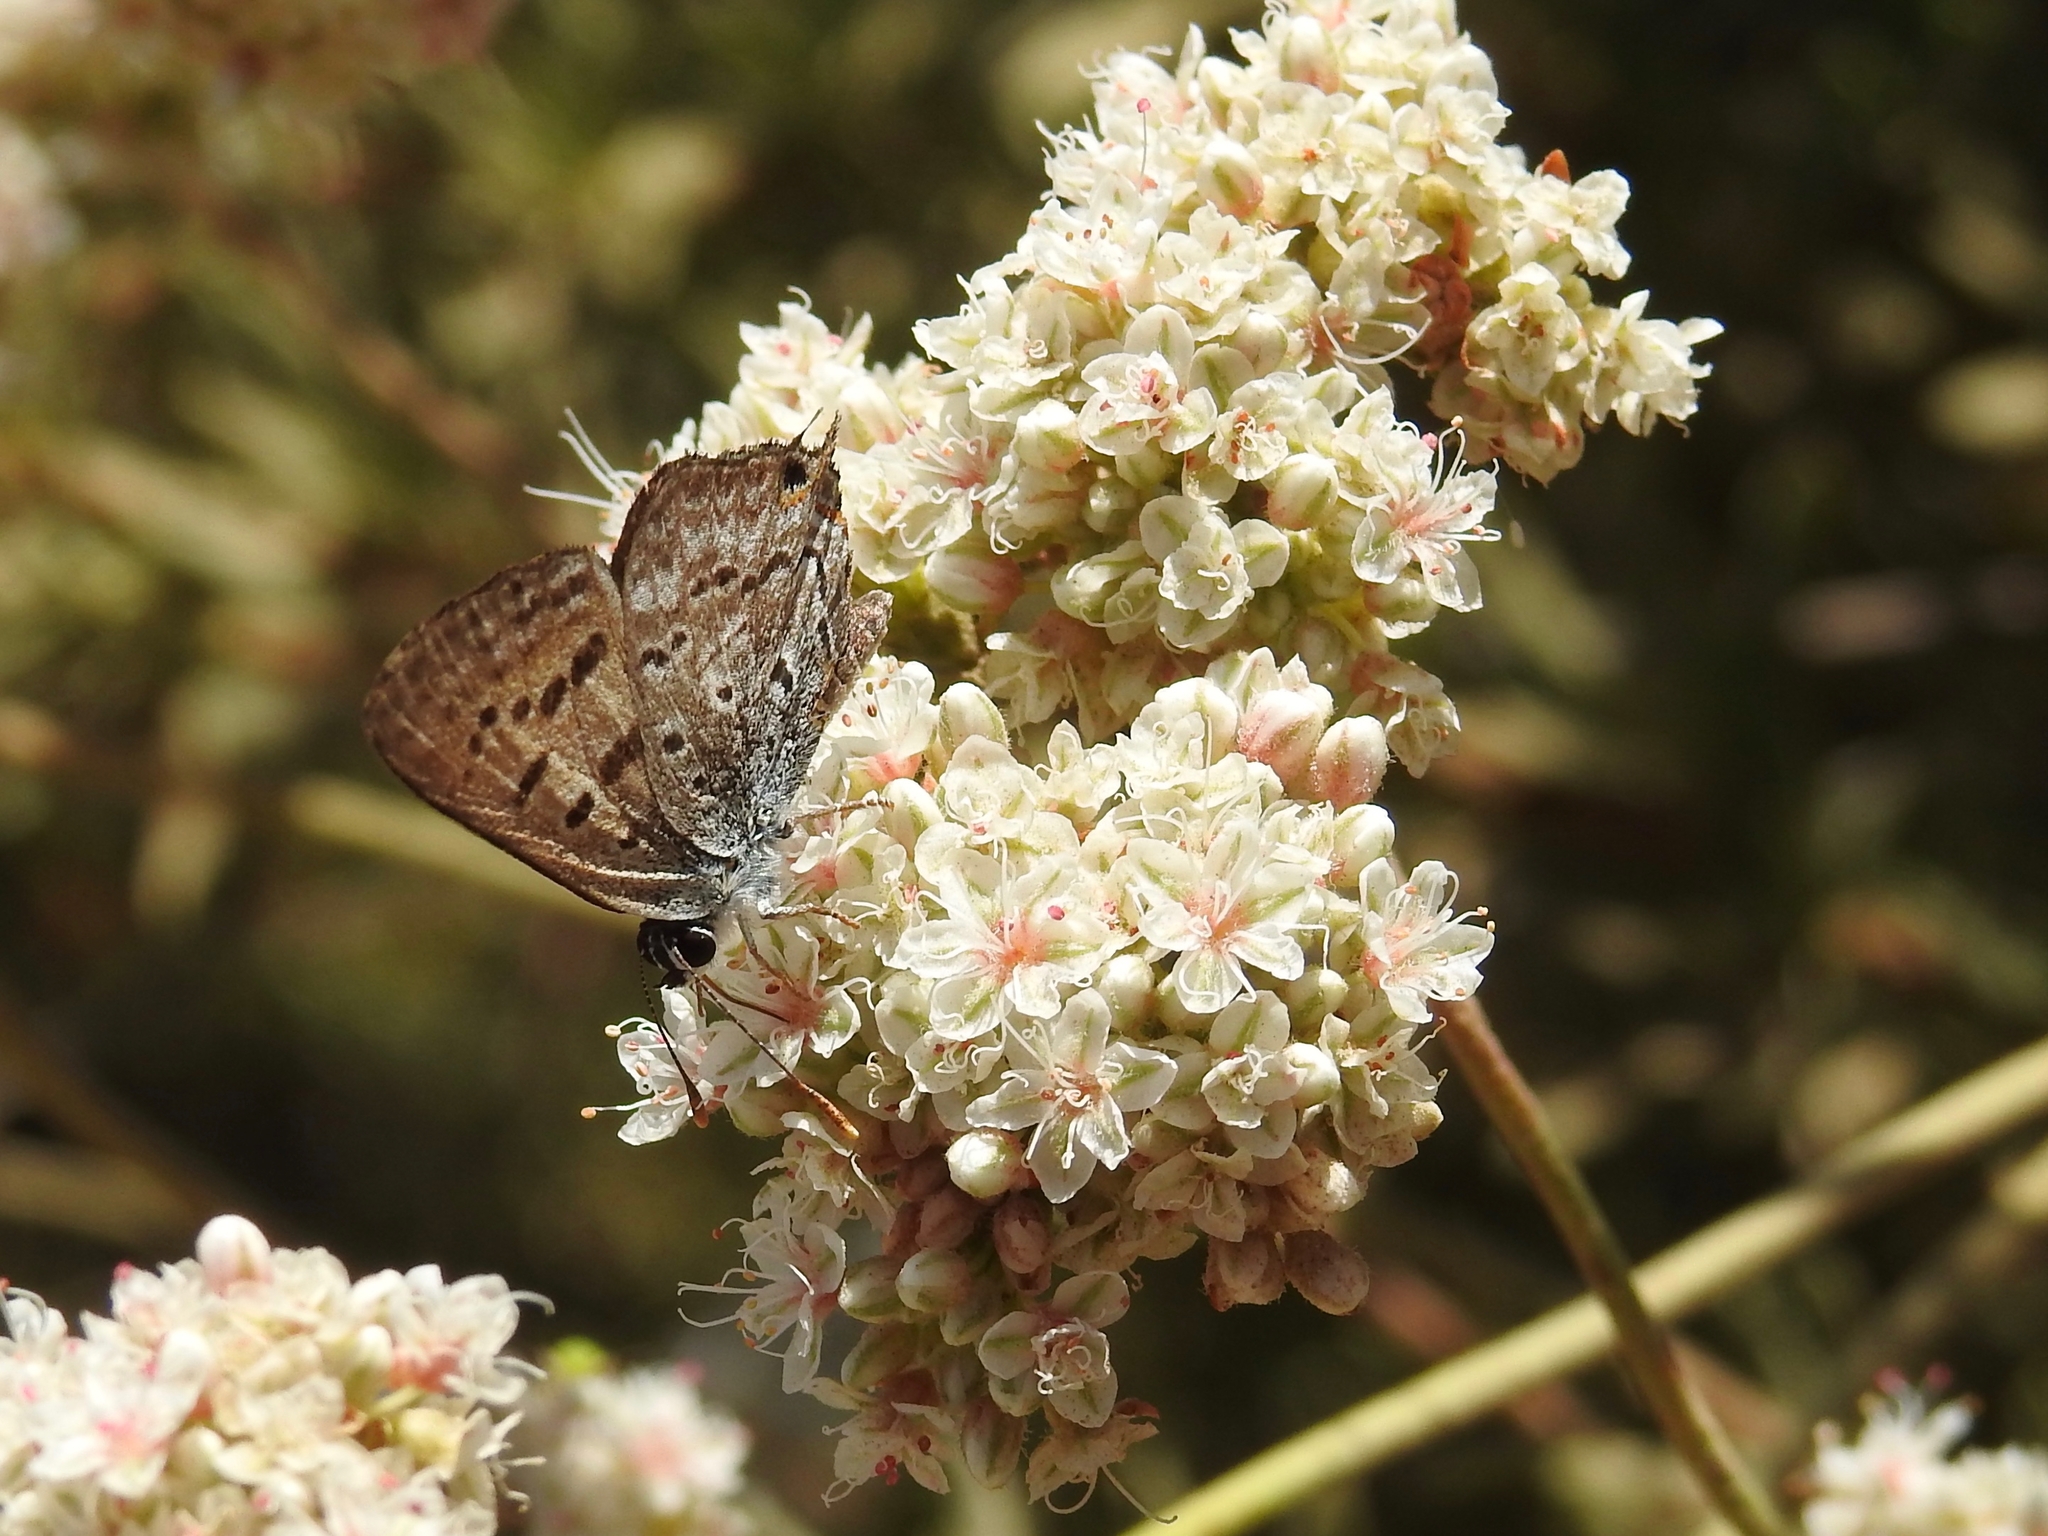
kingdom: Animalia
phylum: Arthropoda
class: Insecta
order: Lepidoptera
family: Lycaenidae
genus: Tharsalea
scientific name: Tharsalea arota
